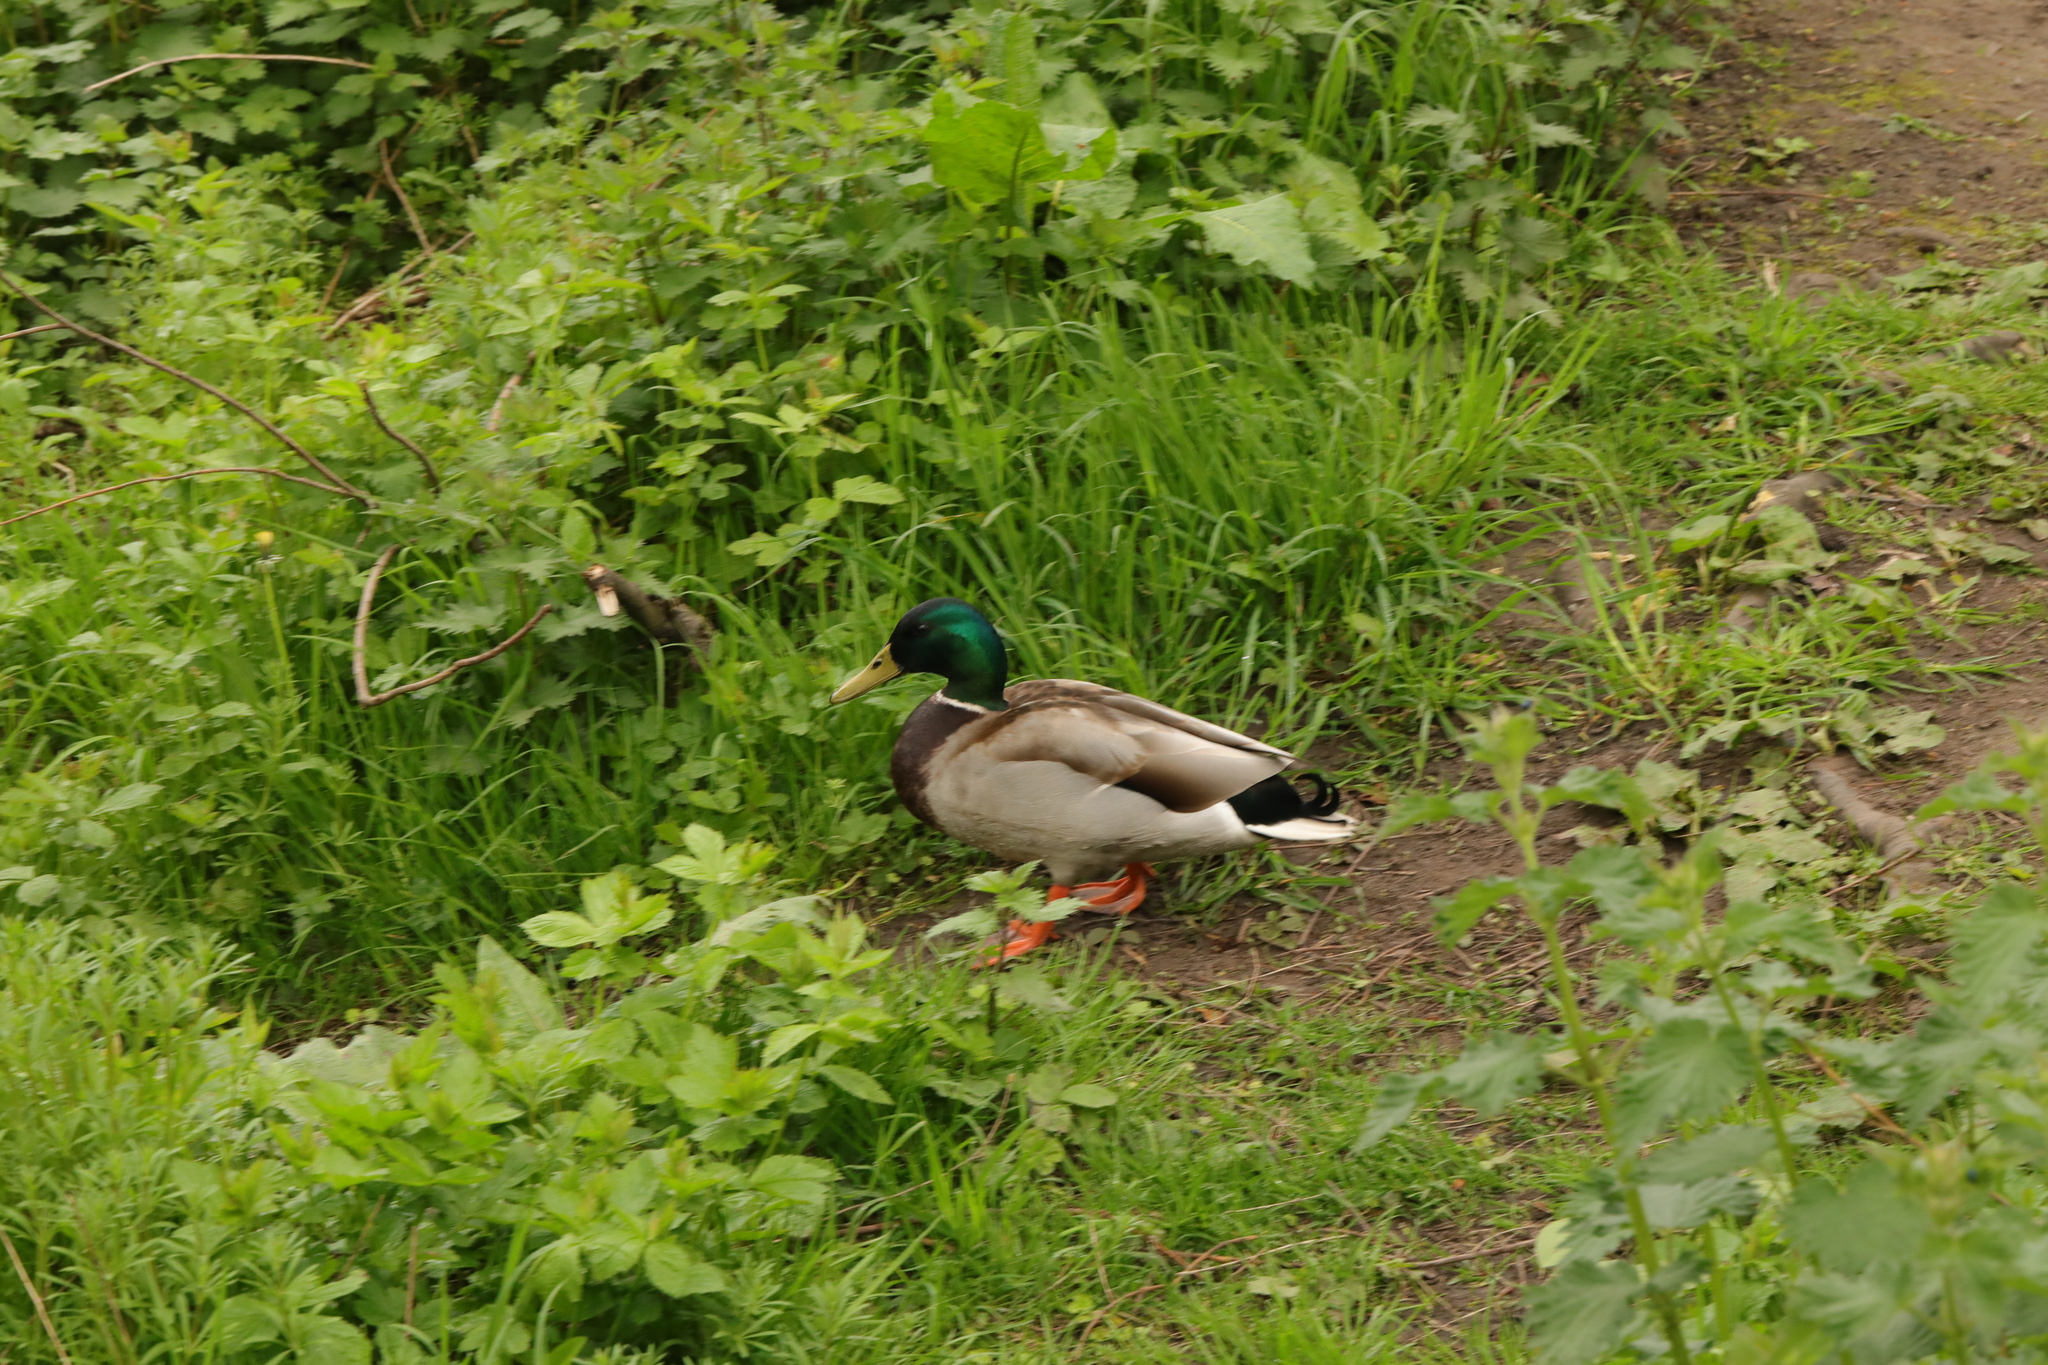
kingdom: Animalia
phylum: Chordata
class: Aves
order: Anseriformes
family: Anatidae
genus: Anas
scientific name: Anas platyrhynchos
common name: Mallard
